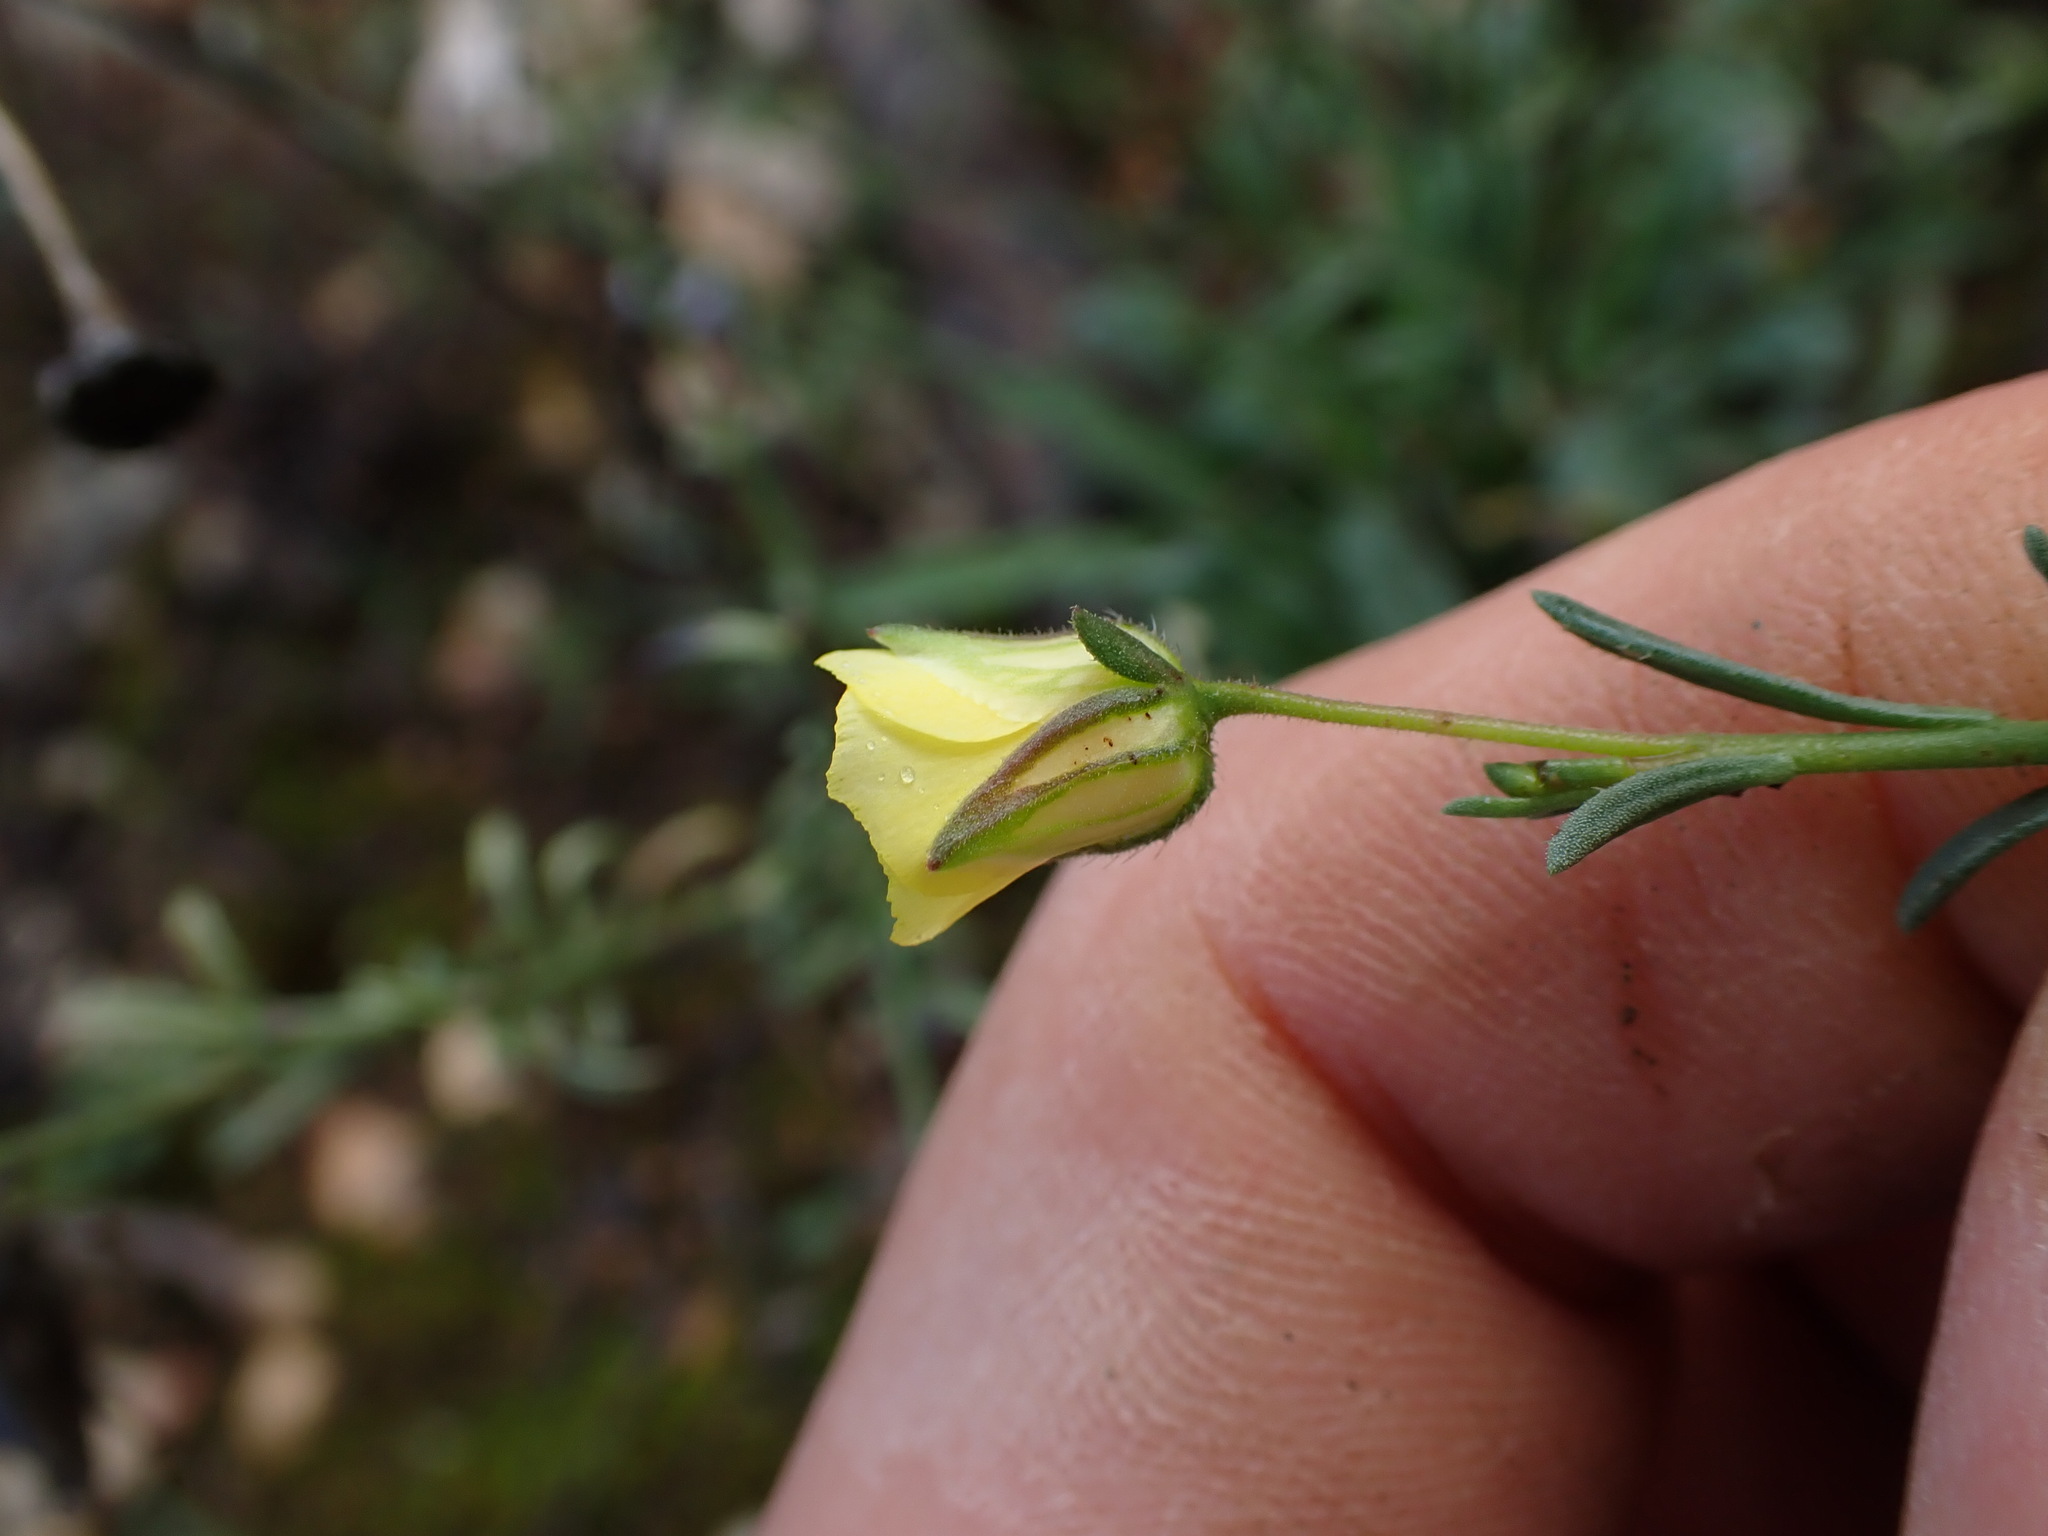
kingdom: Plantae
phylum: Tracheophyta
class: Magnoliopsida
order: Malvales
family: Cistaceae
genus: Fumana
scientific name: Fumana ericifolia
